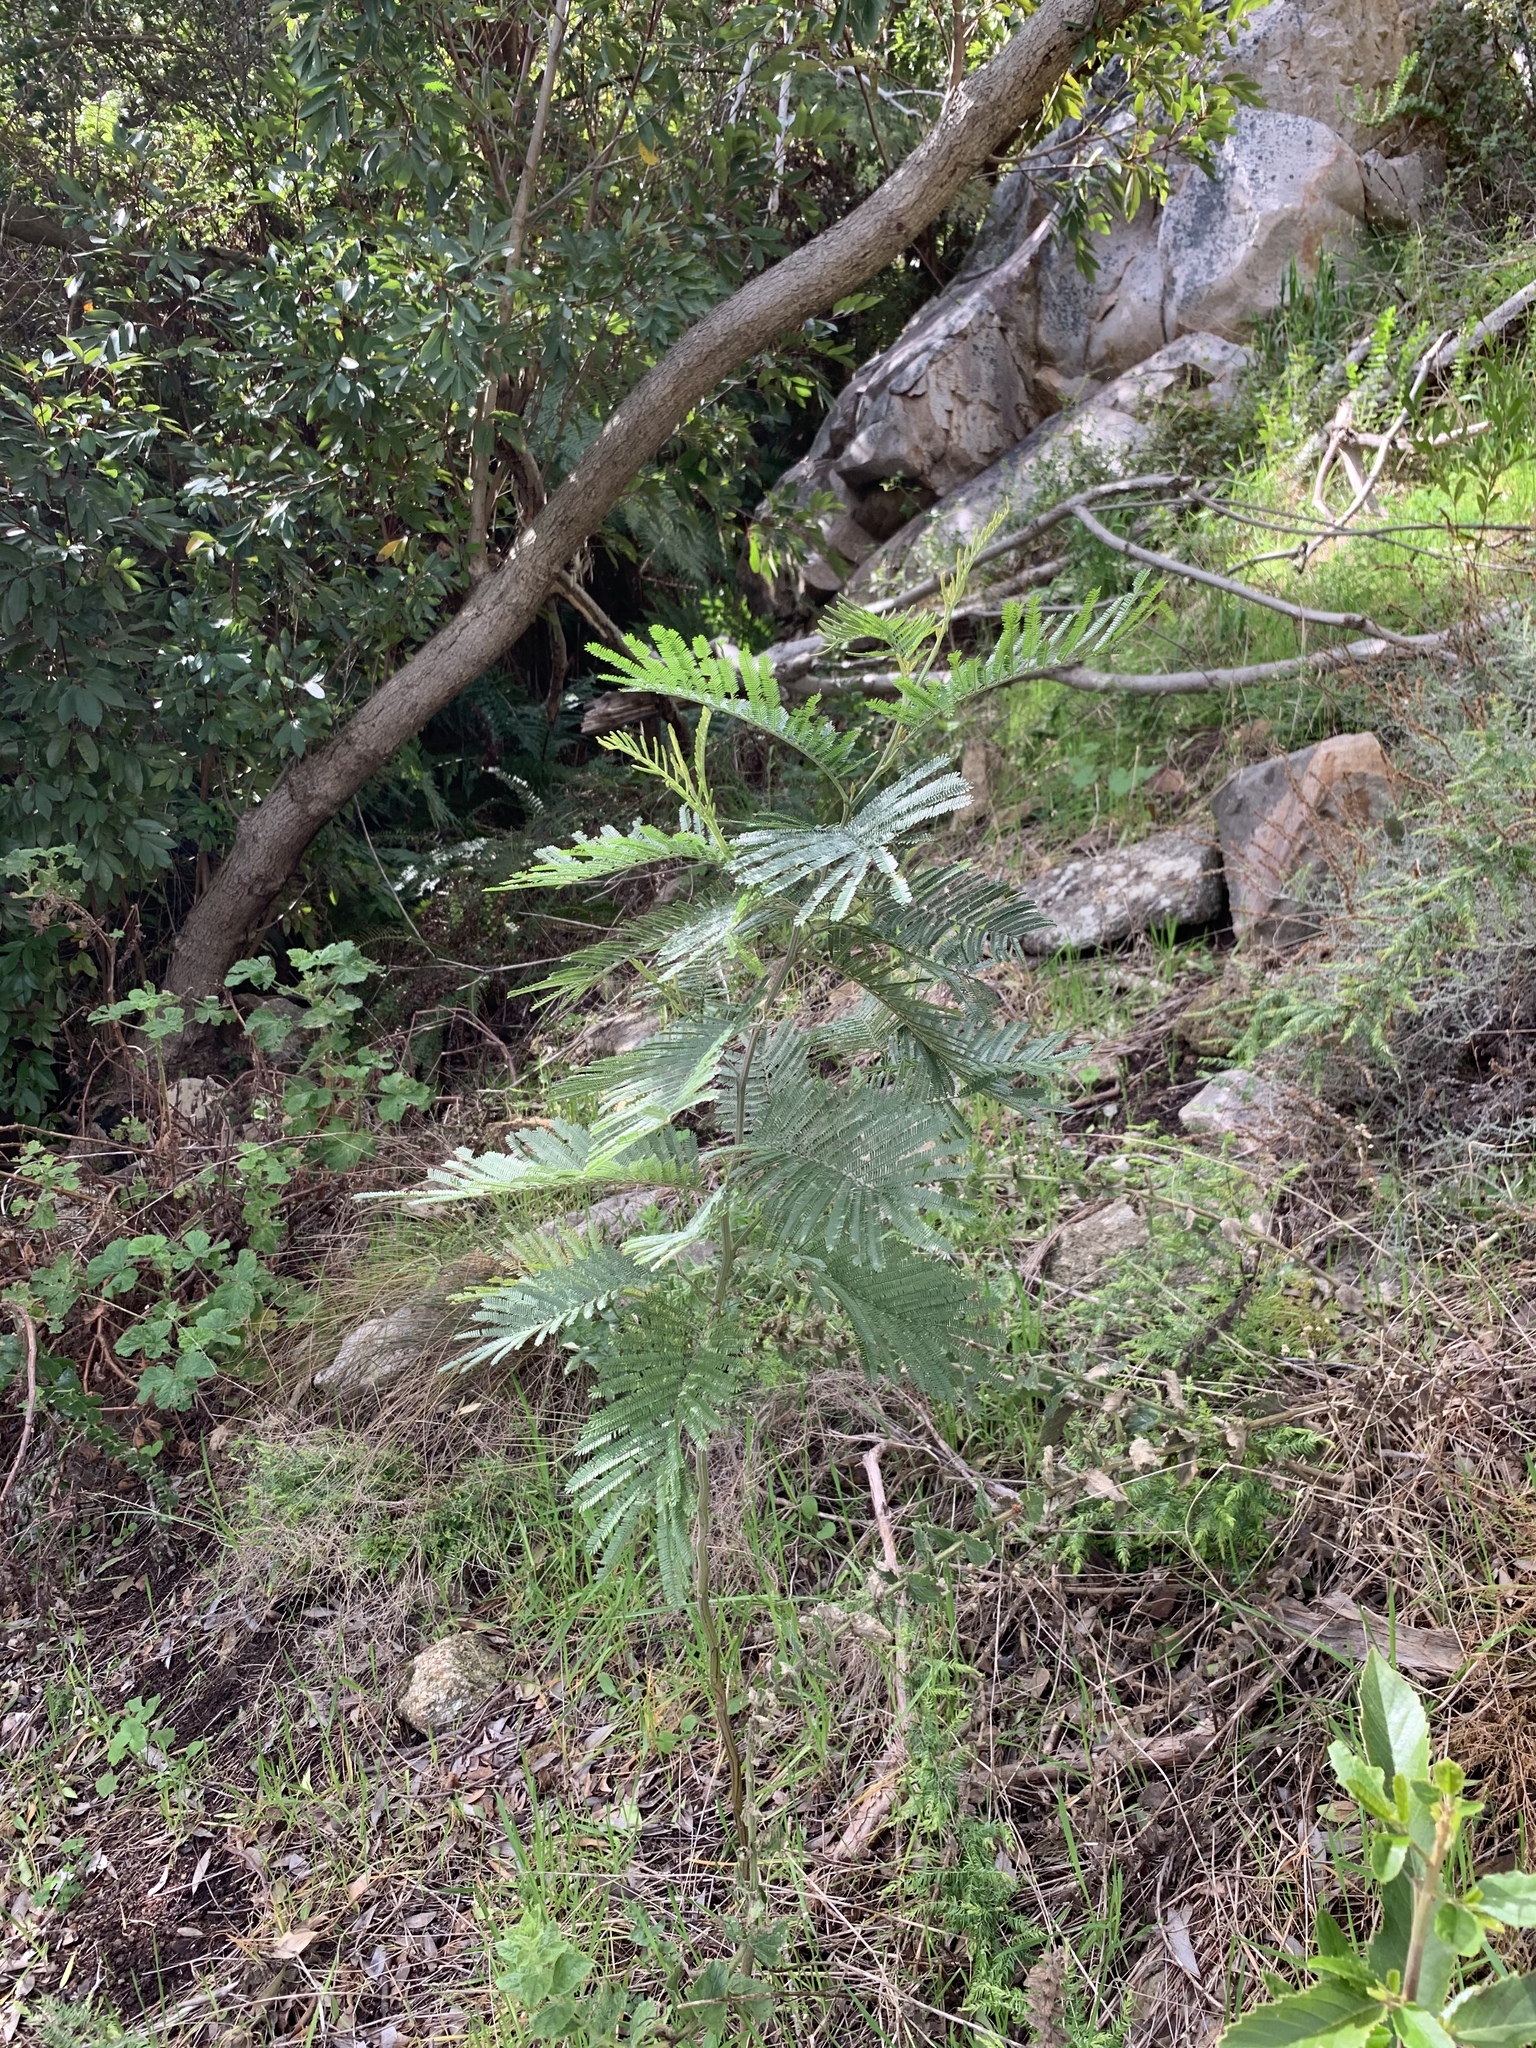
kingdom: Plantae
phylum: Tracheophyta
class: Magnoliopsida
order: Fabales
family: Fabaceae
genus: Acacia
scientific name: Acacia mearnsii
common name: Black wattle
